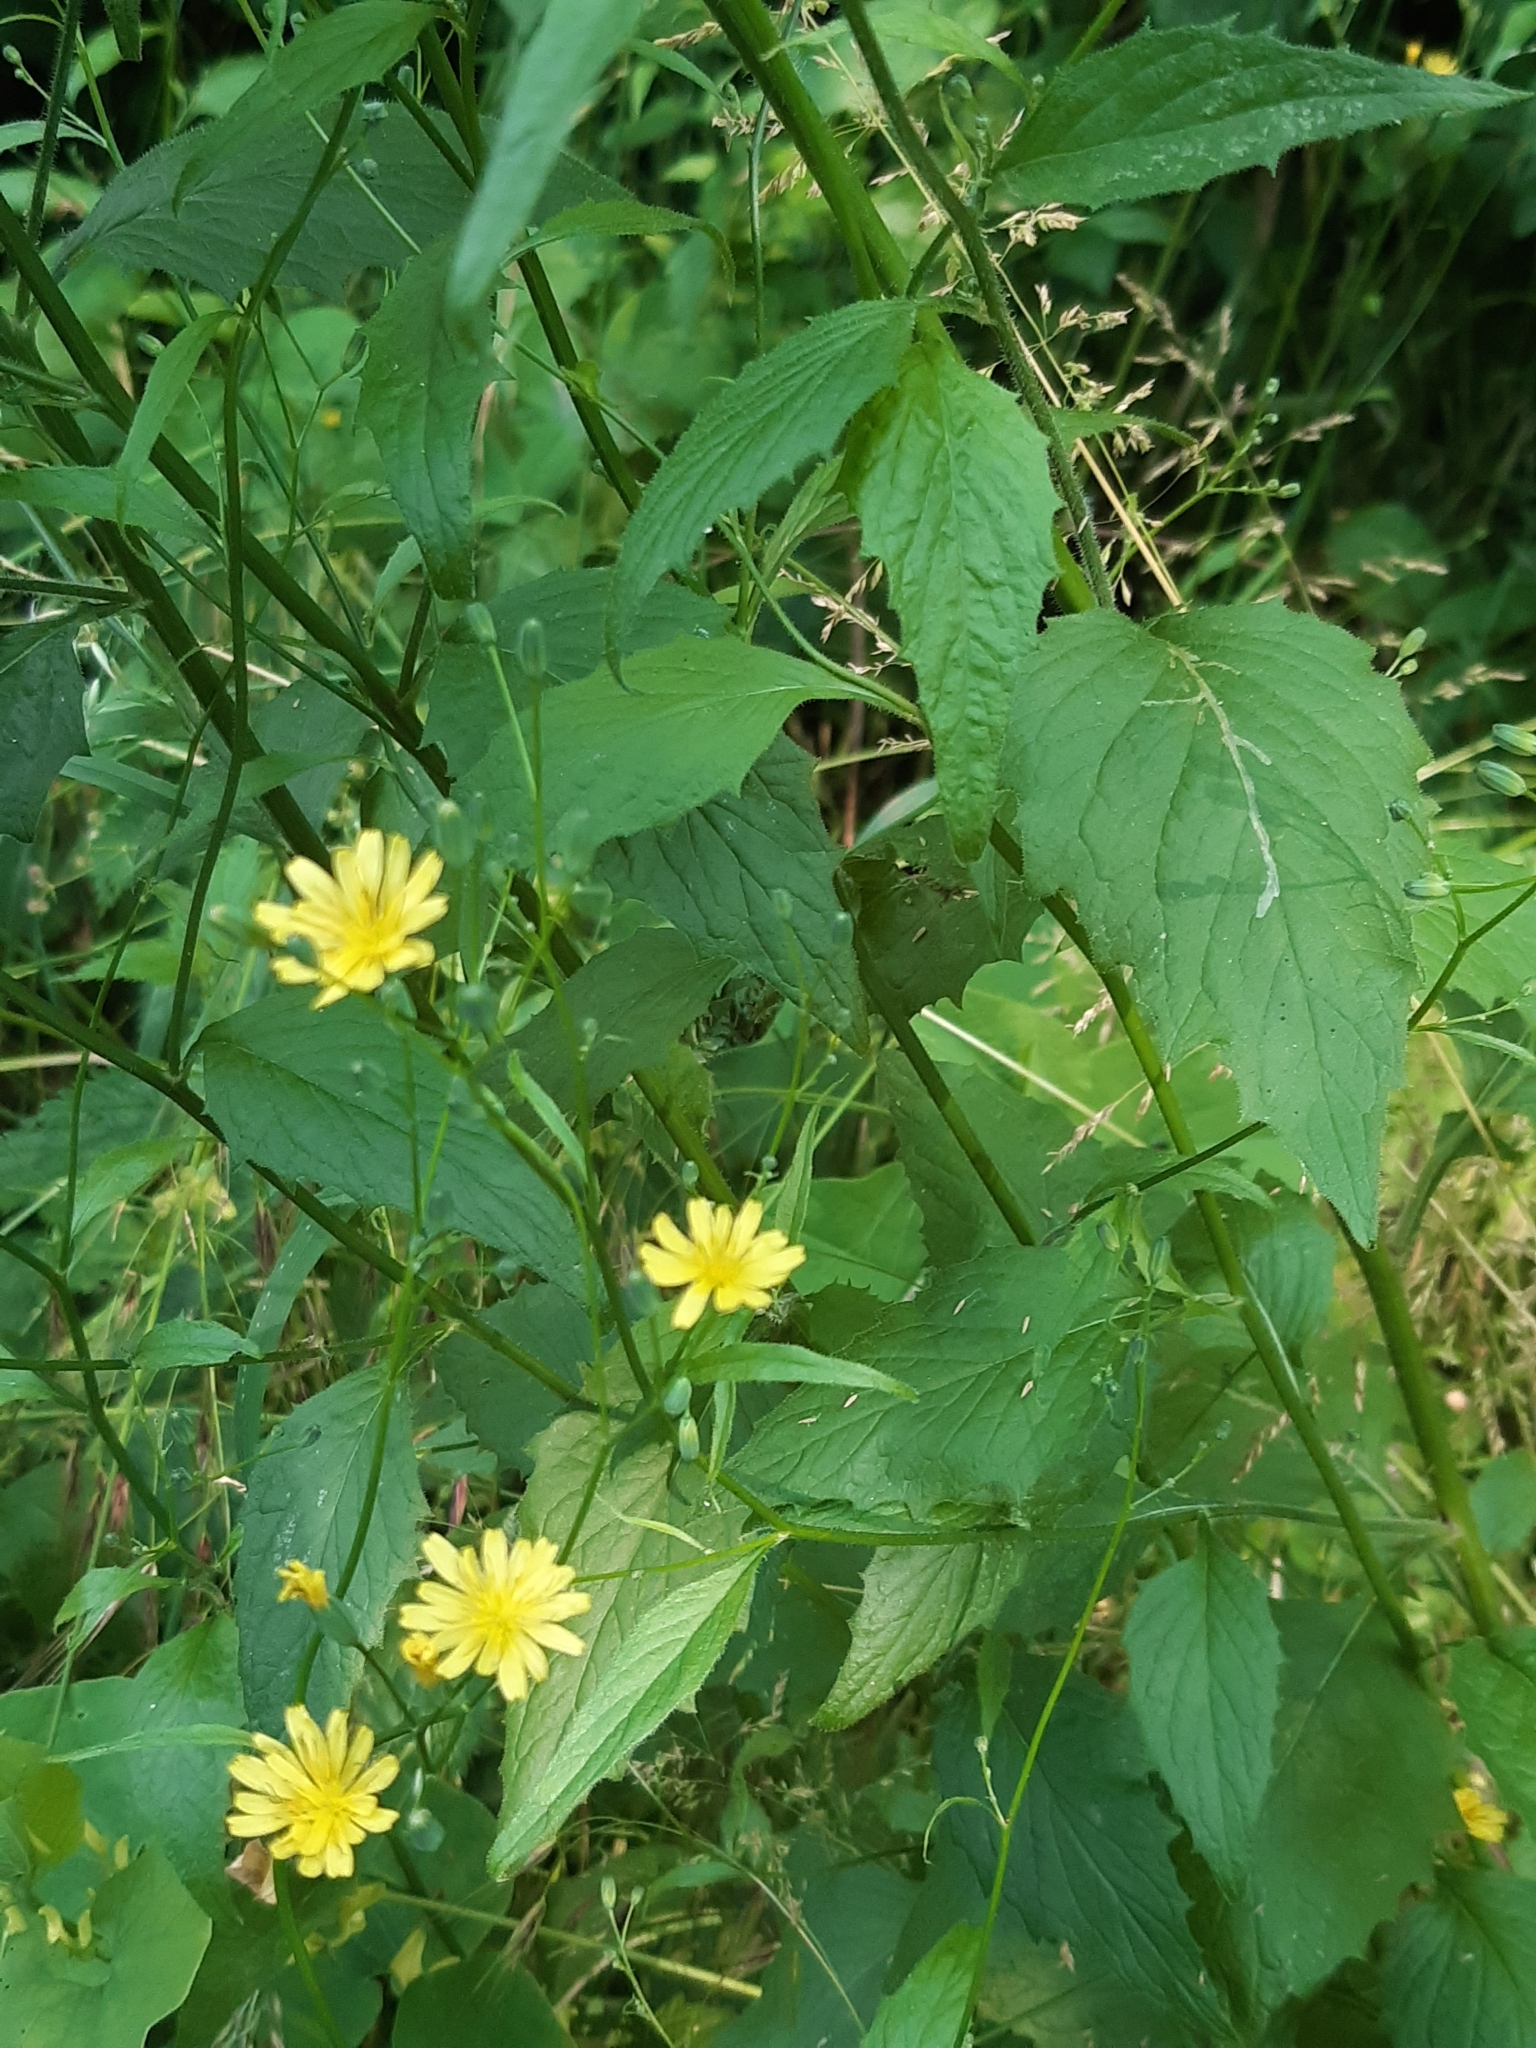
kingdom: Plantae
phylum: Tracheophyta
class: Magnoliopsida
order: Asterales
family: Asteraceae
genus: Lapsana
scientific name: Lapsana communis
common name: Nipplewort
